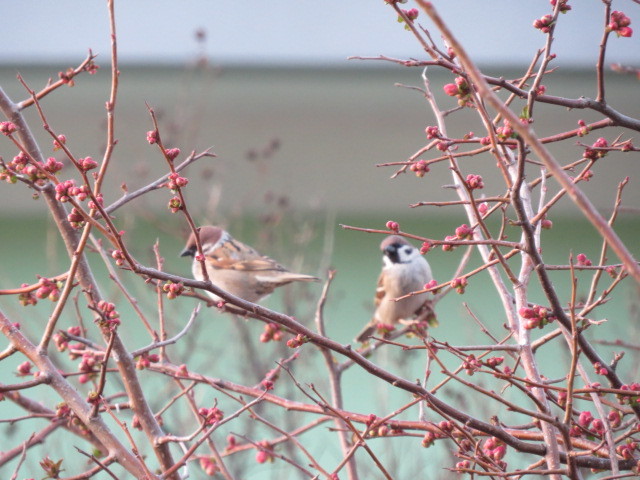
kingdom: Animalia
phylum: Chordata
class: Aves
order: Passeriformes
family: Passeridae
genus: Passer
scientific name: Passer montanus
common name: Eurasian tree sparrow
